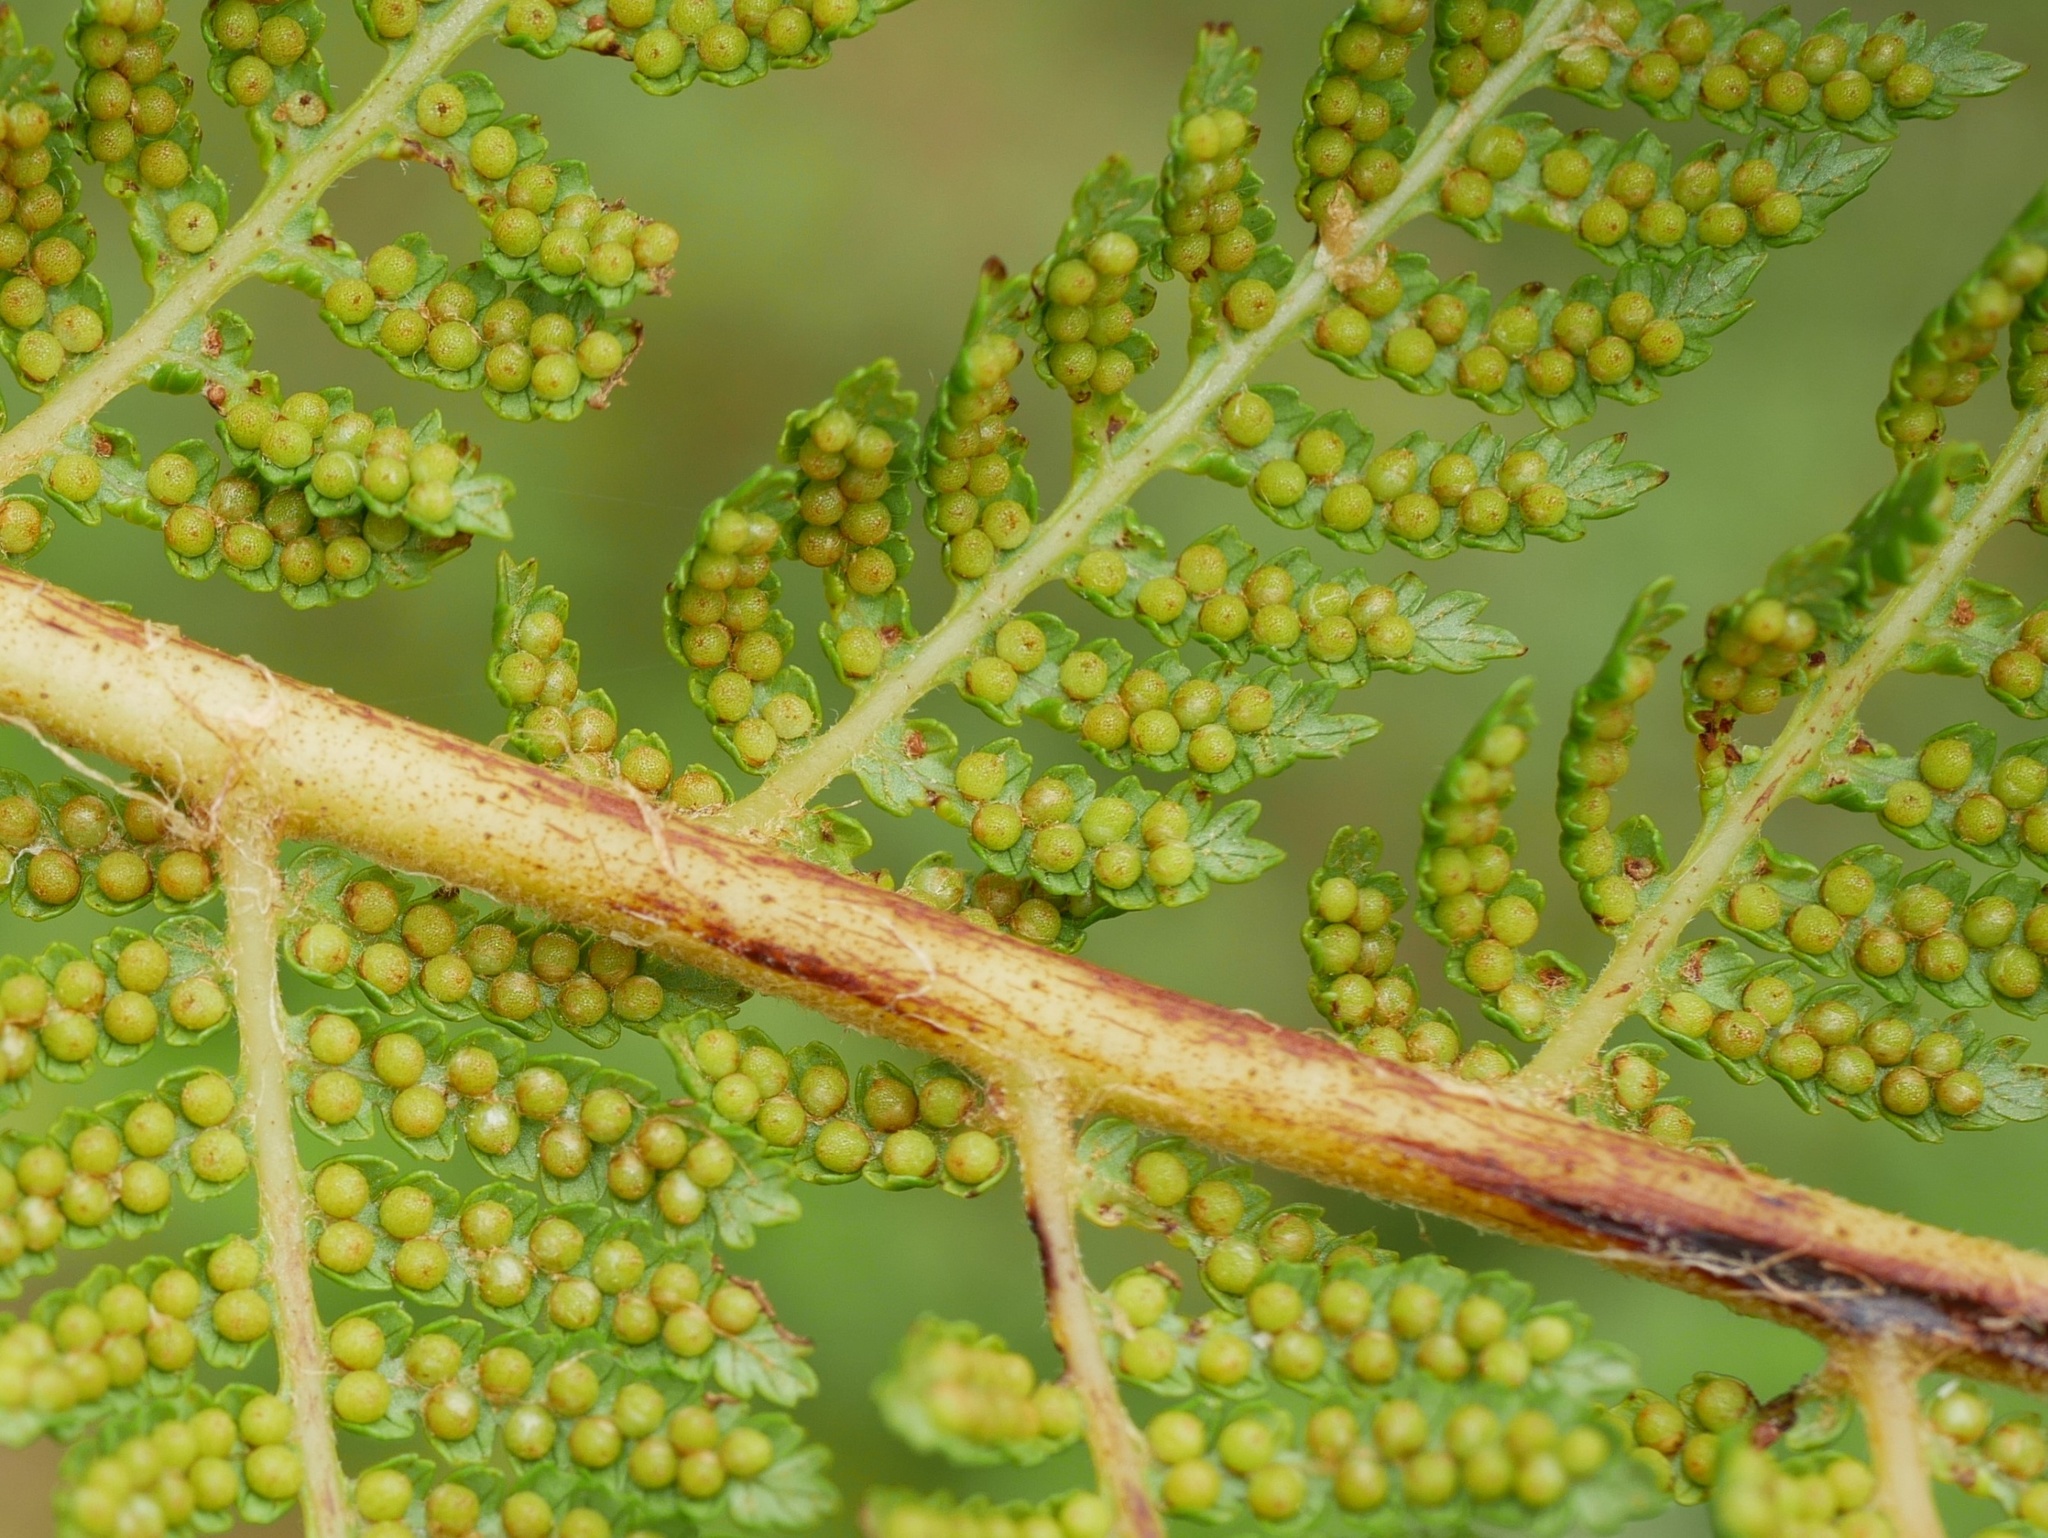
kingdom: Plantae
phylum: Tracheophyta
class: Polypodiopsida
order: Cyatheales
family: Cyatheaceae
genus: Cyathea
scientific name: Cyathea cunninghamii
